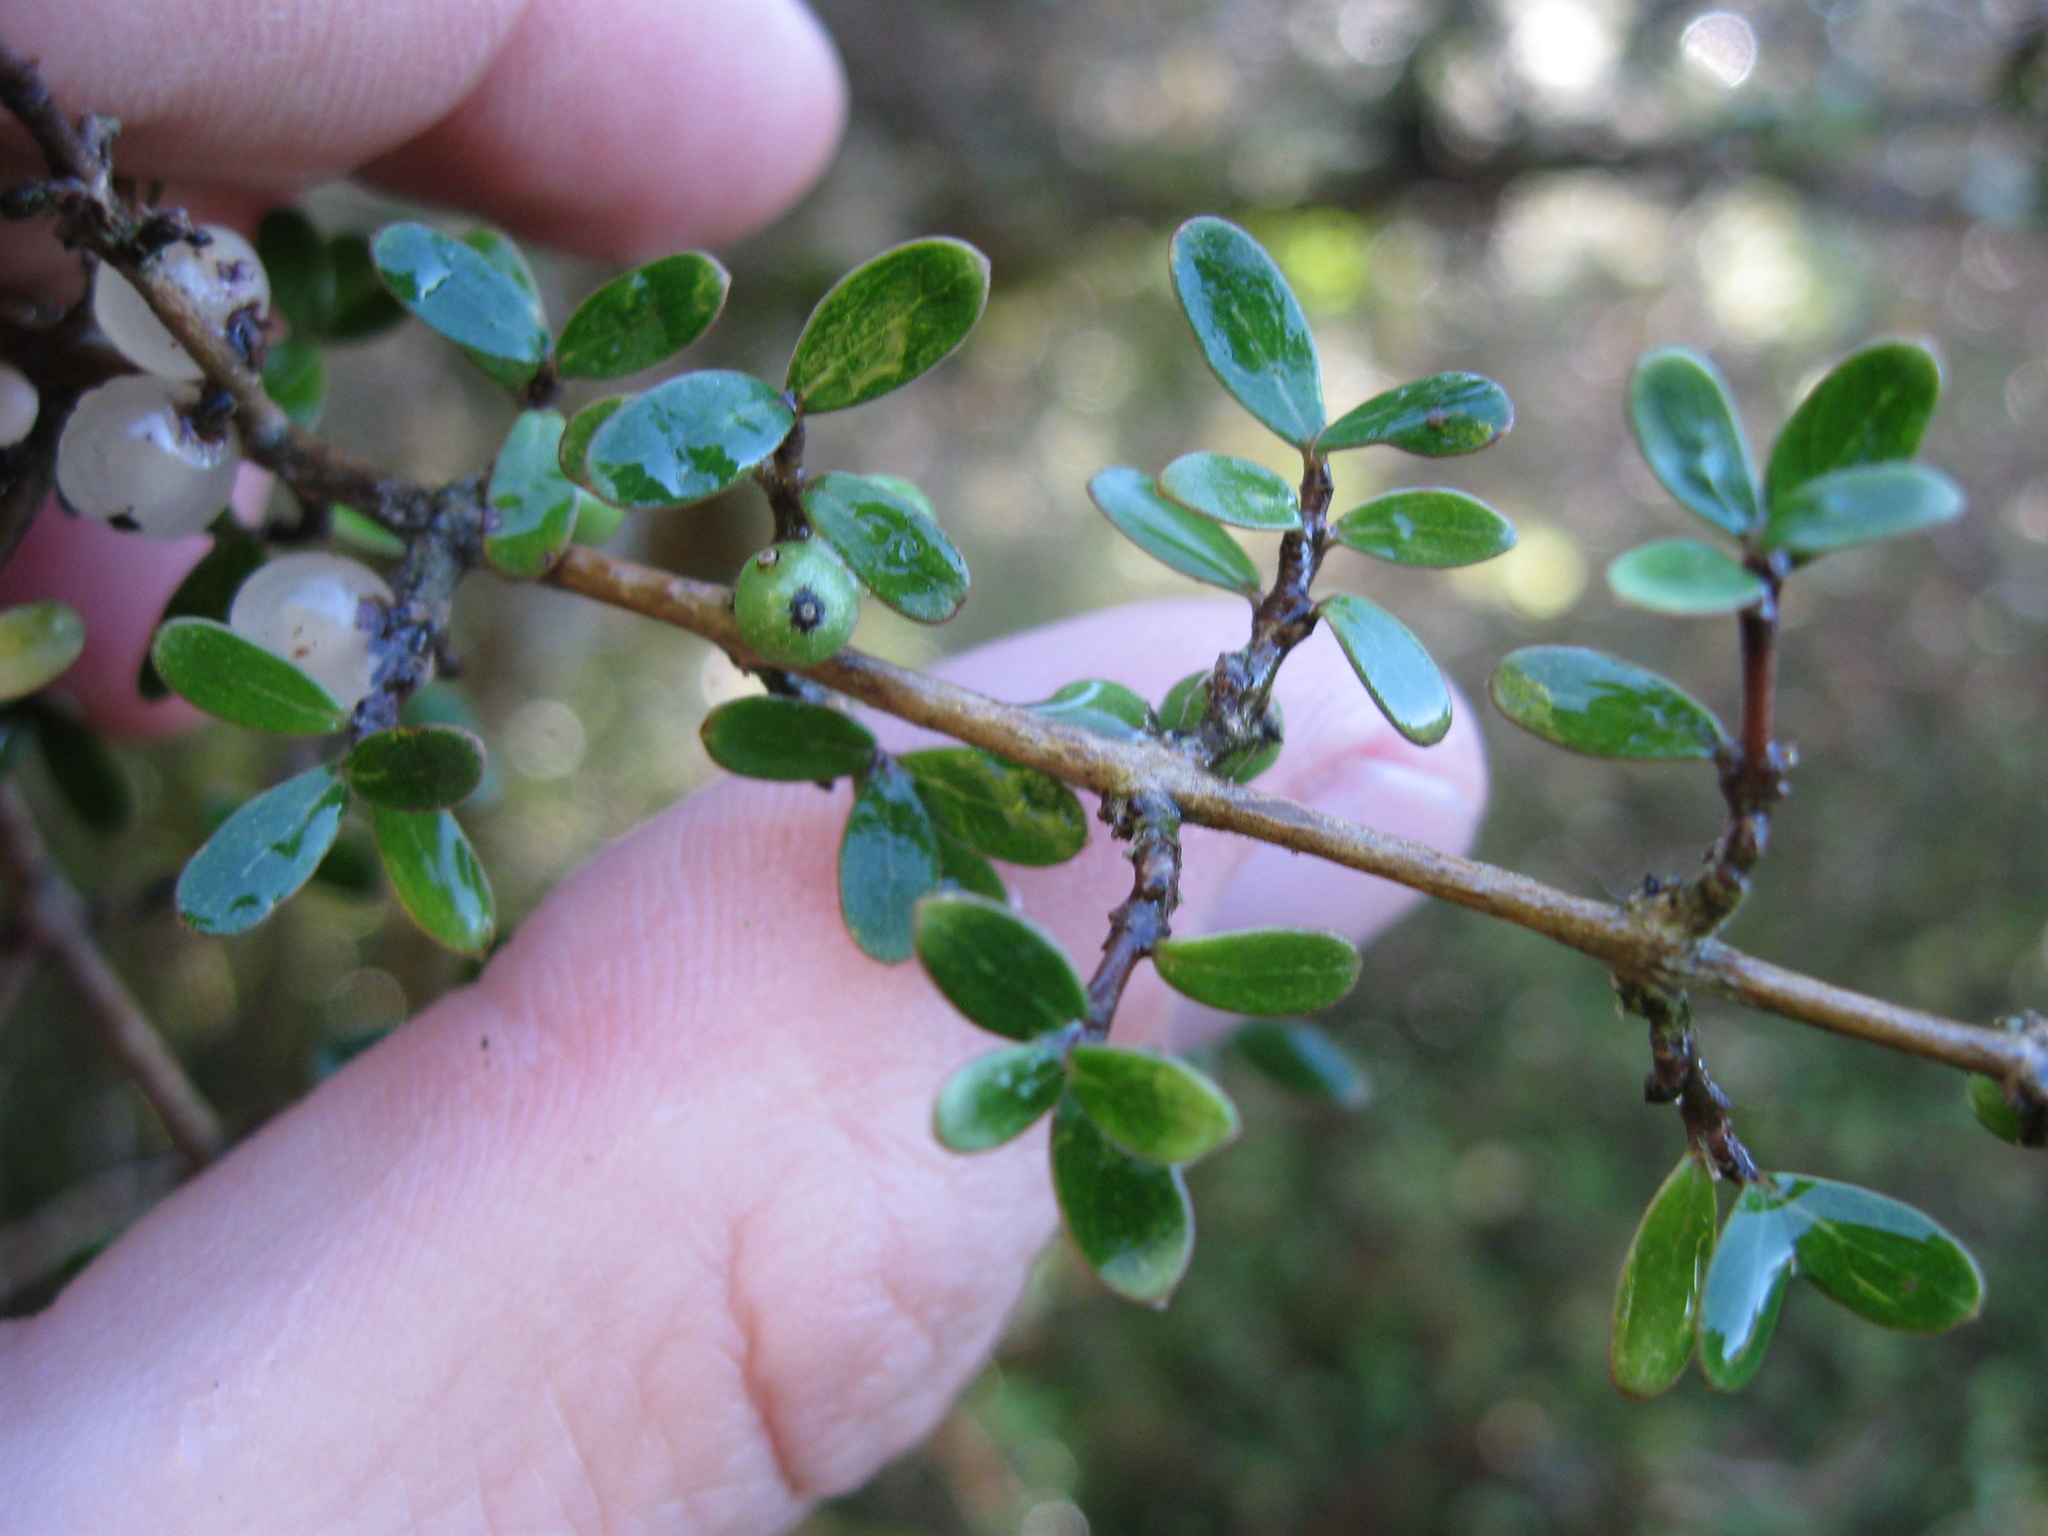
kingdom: Plantae
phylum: Tracheophyta
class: Magnoliopsida
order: Gentianales
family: Rubiaceae
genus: Coprosma
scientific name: Coprosma dumosa
